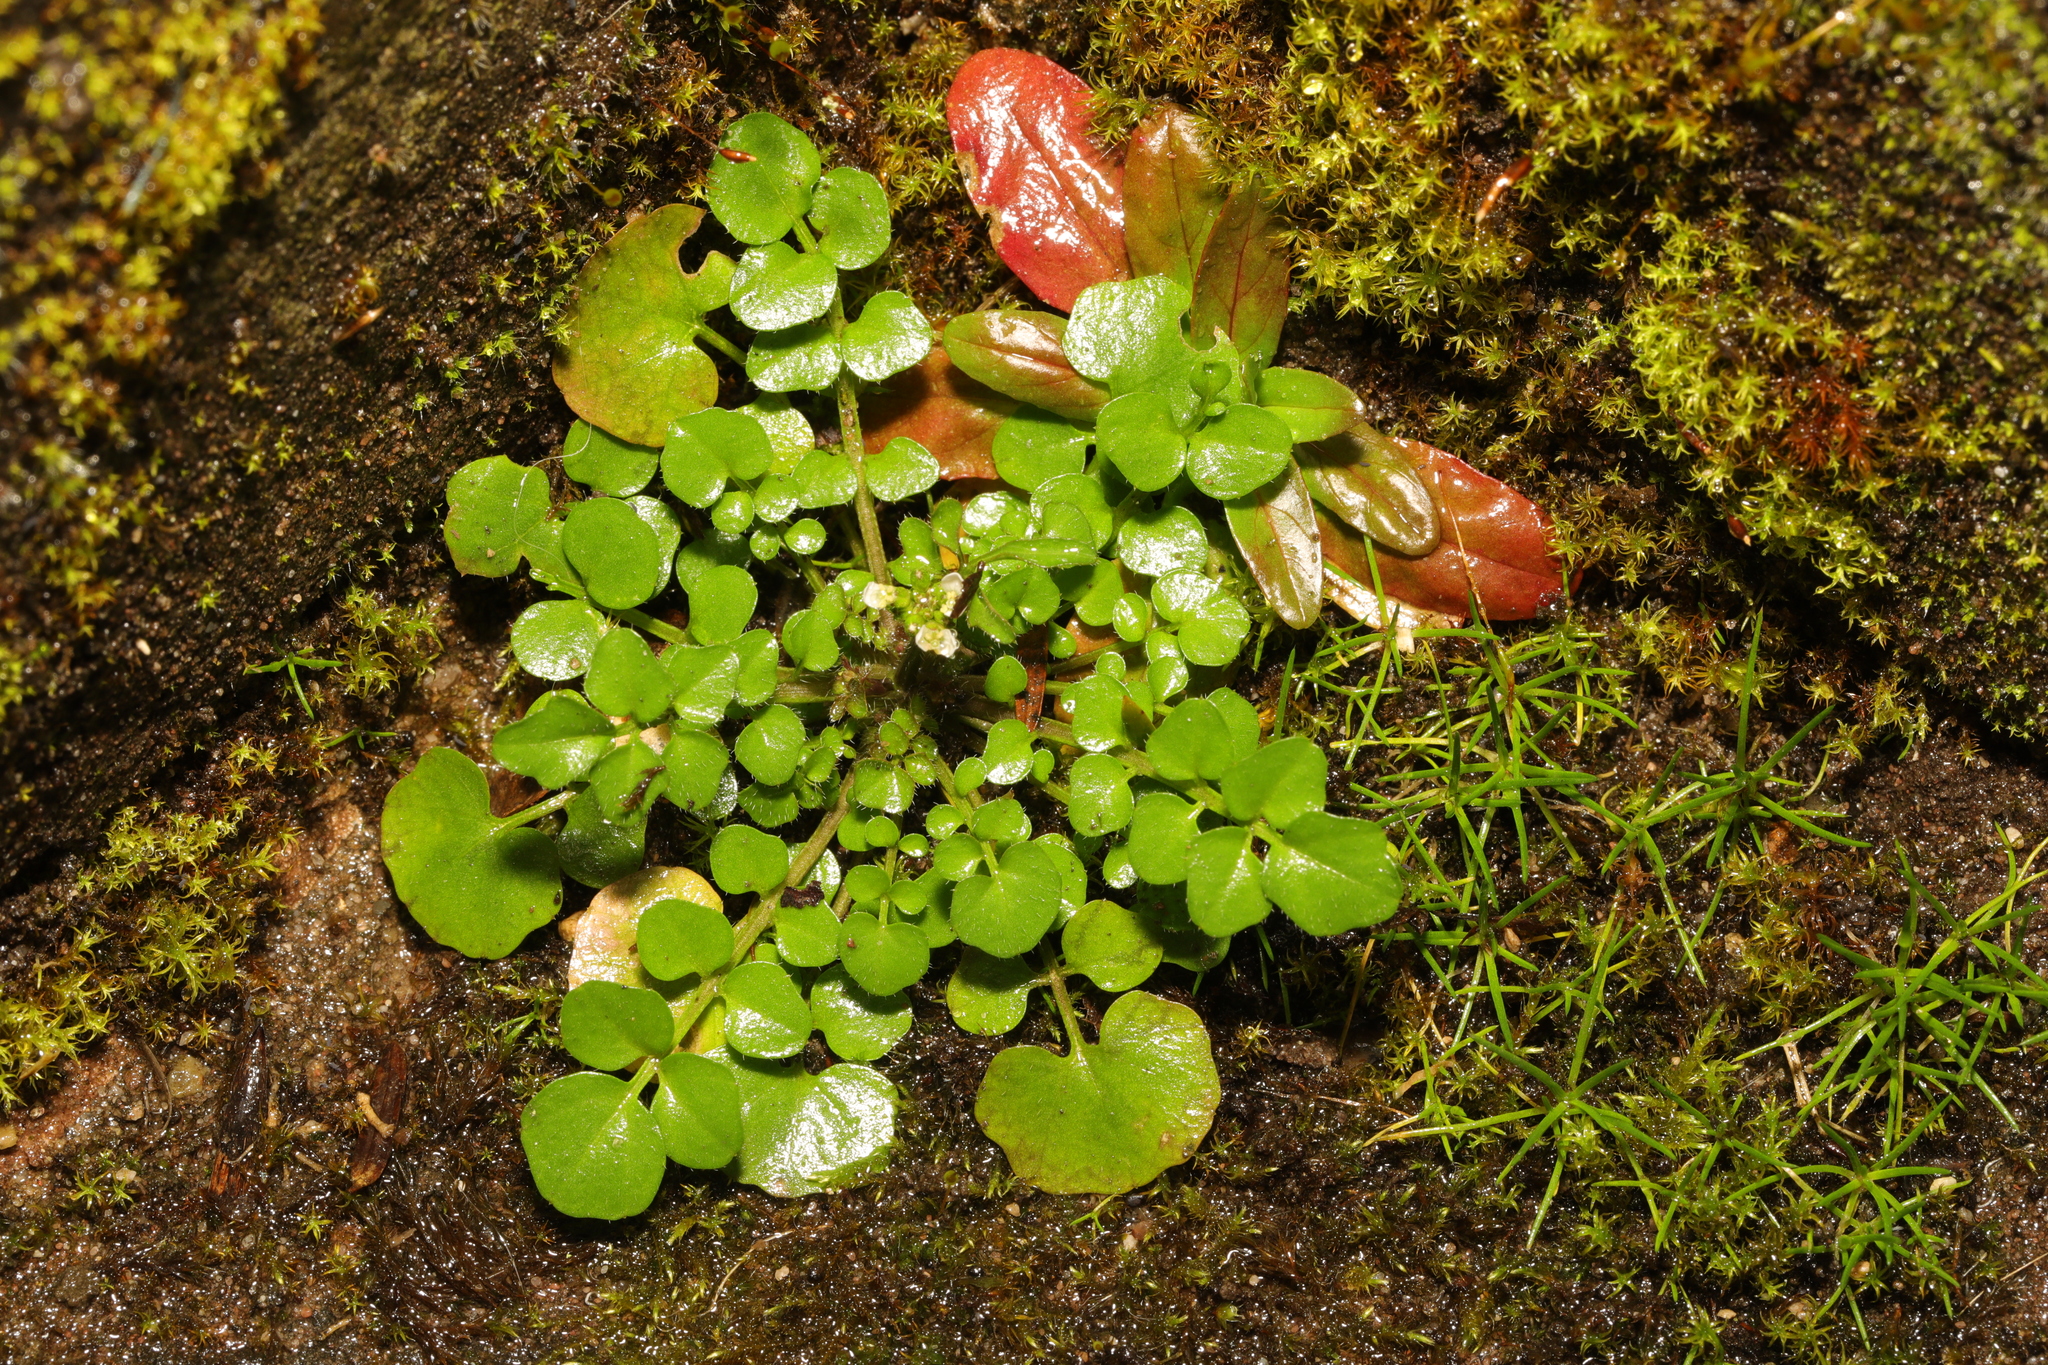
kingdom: Plantae
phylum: Tracheophyta
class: Magnoliopsida
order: Brassicales
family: Brassicaceae
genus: Cardamine
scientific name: Cardamine hirsuta
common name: Hairy bittercress
